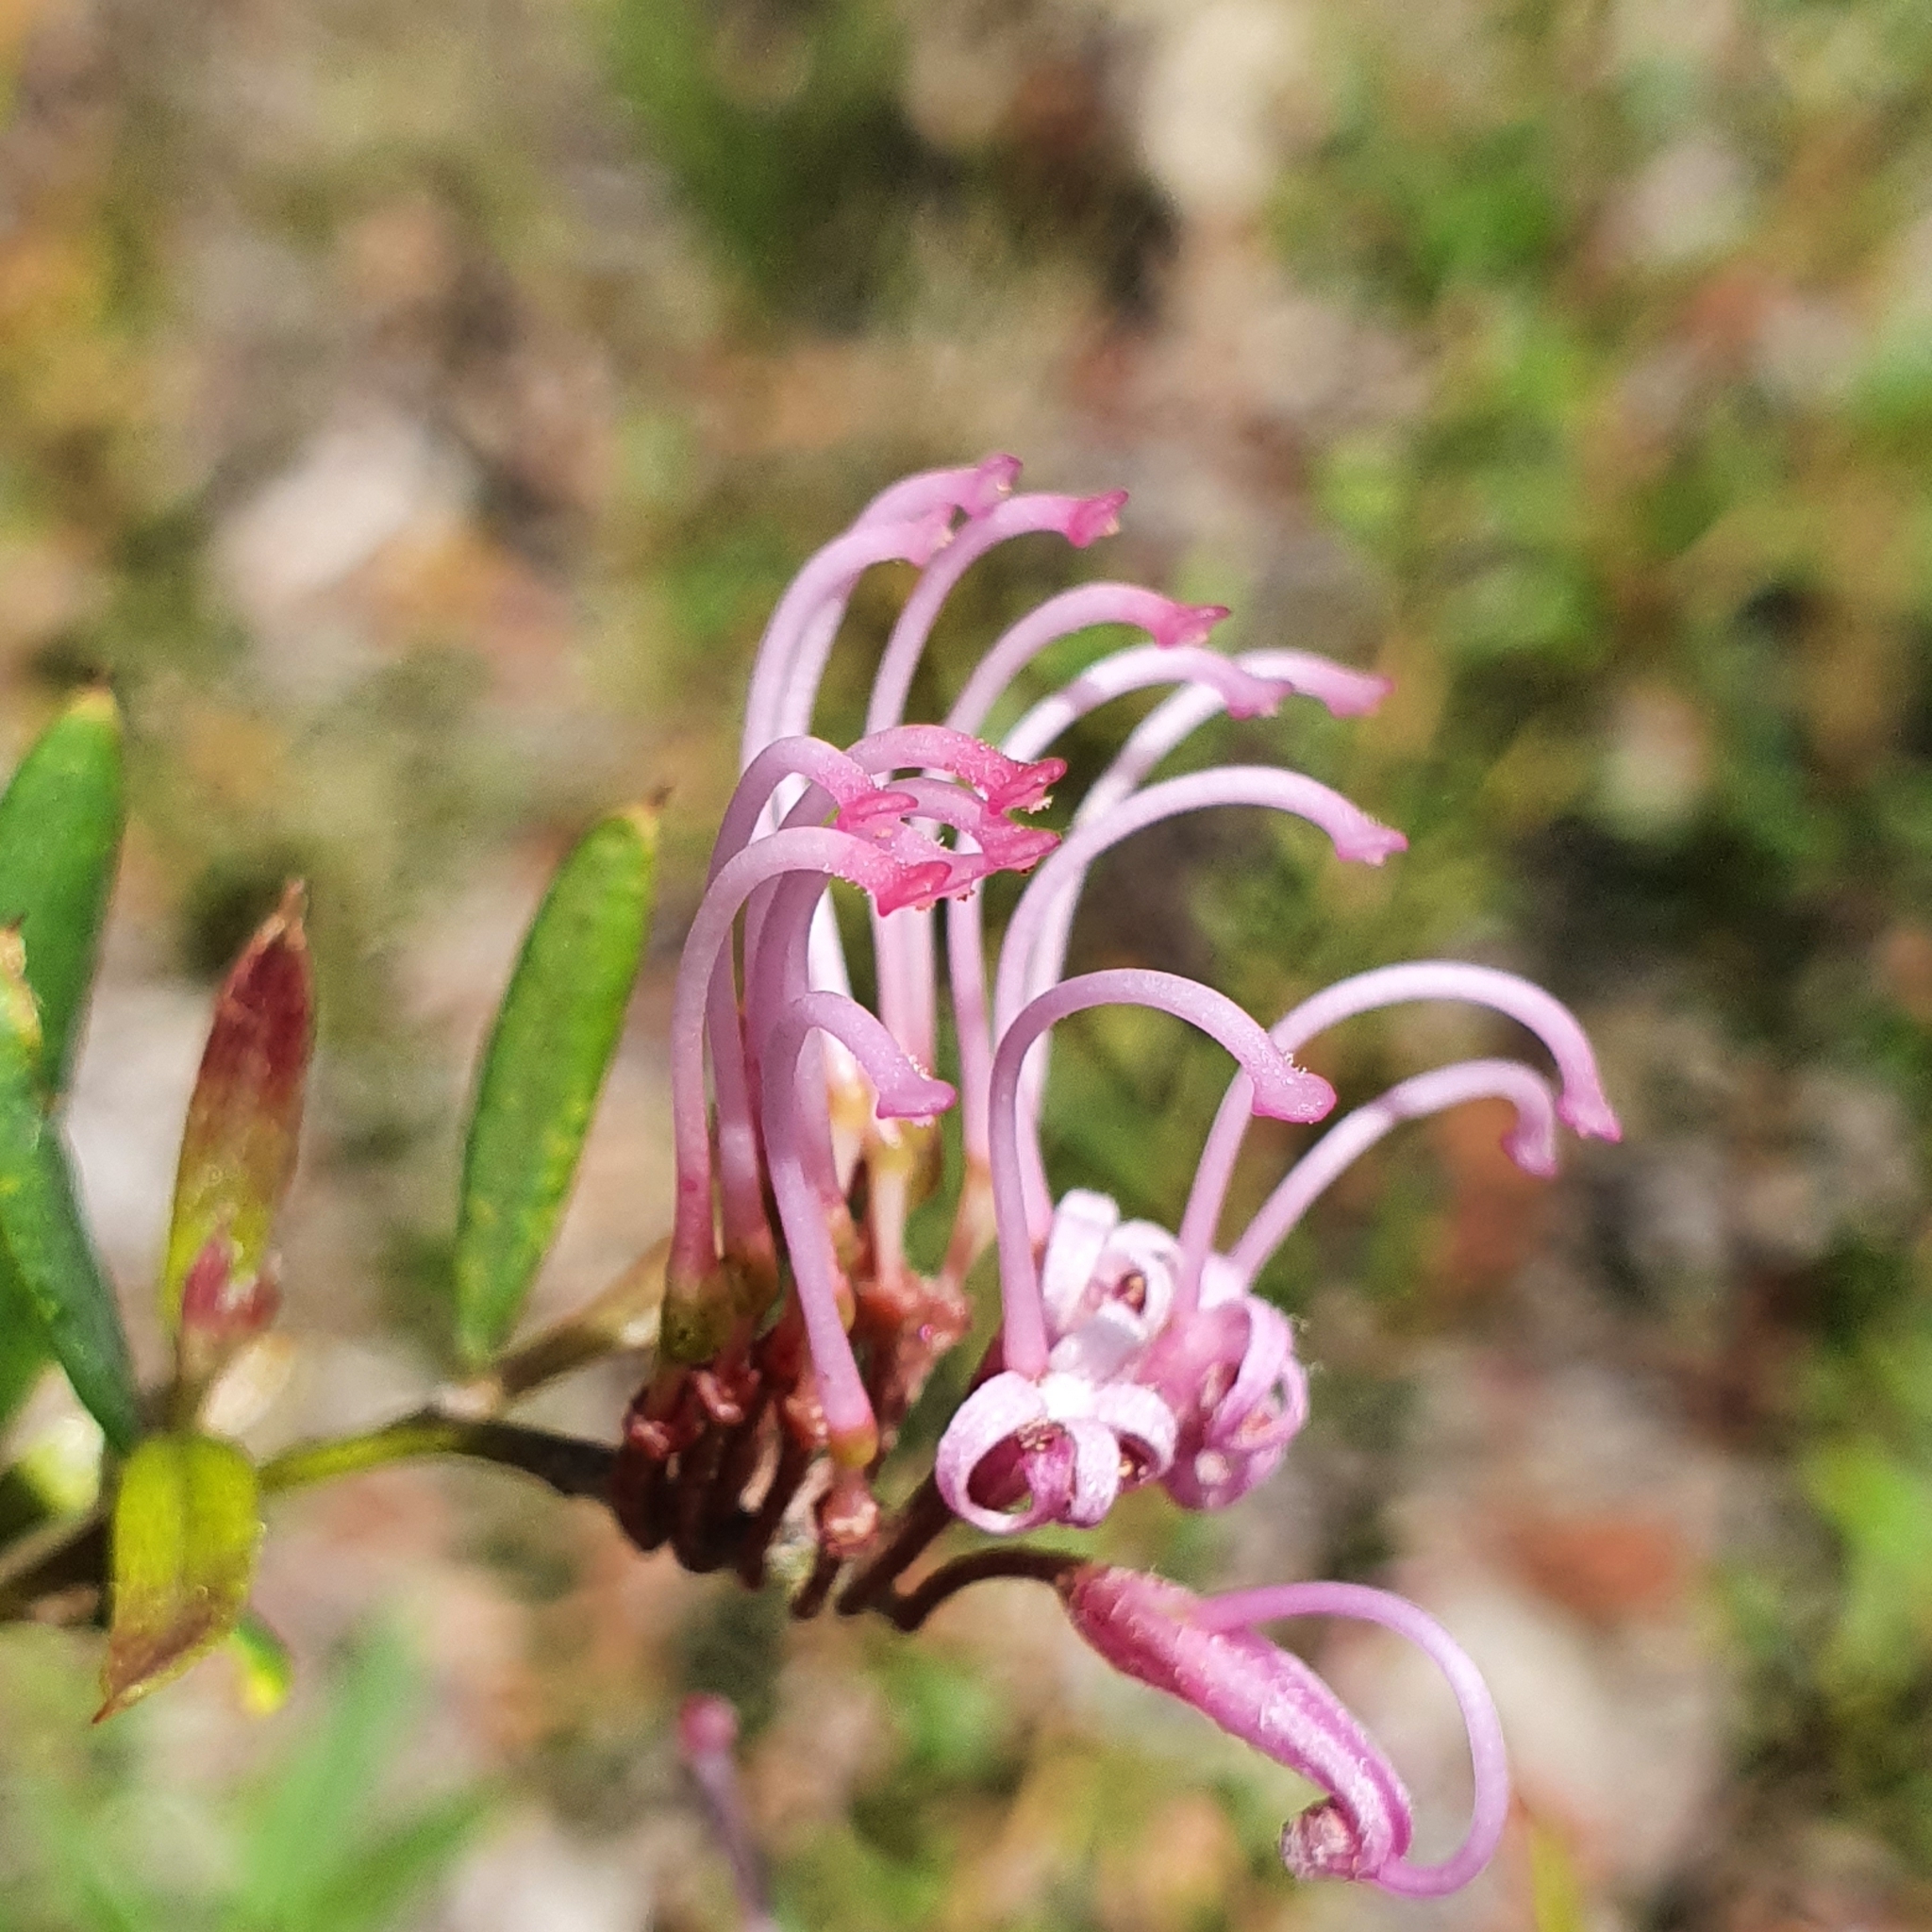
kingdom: Plantae
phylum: Tracheophyta
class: Magnoliopsida
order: Proteales
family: Proteaceae
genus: Grevillea
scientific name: Grevillea sericea
